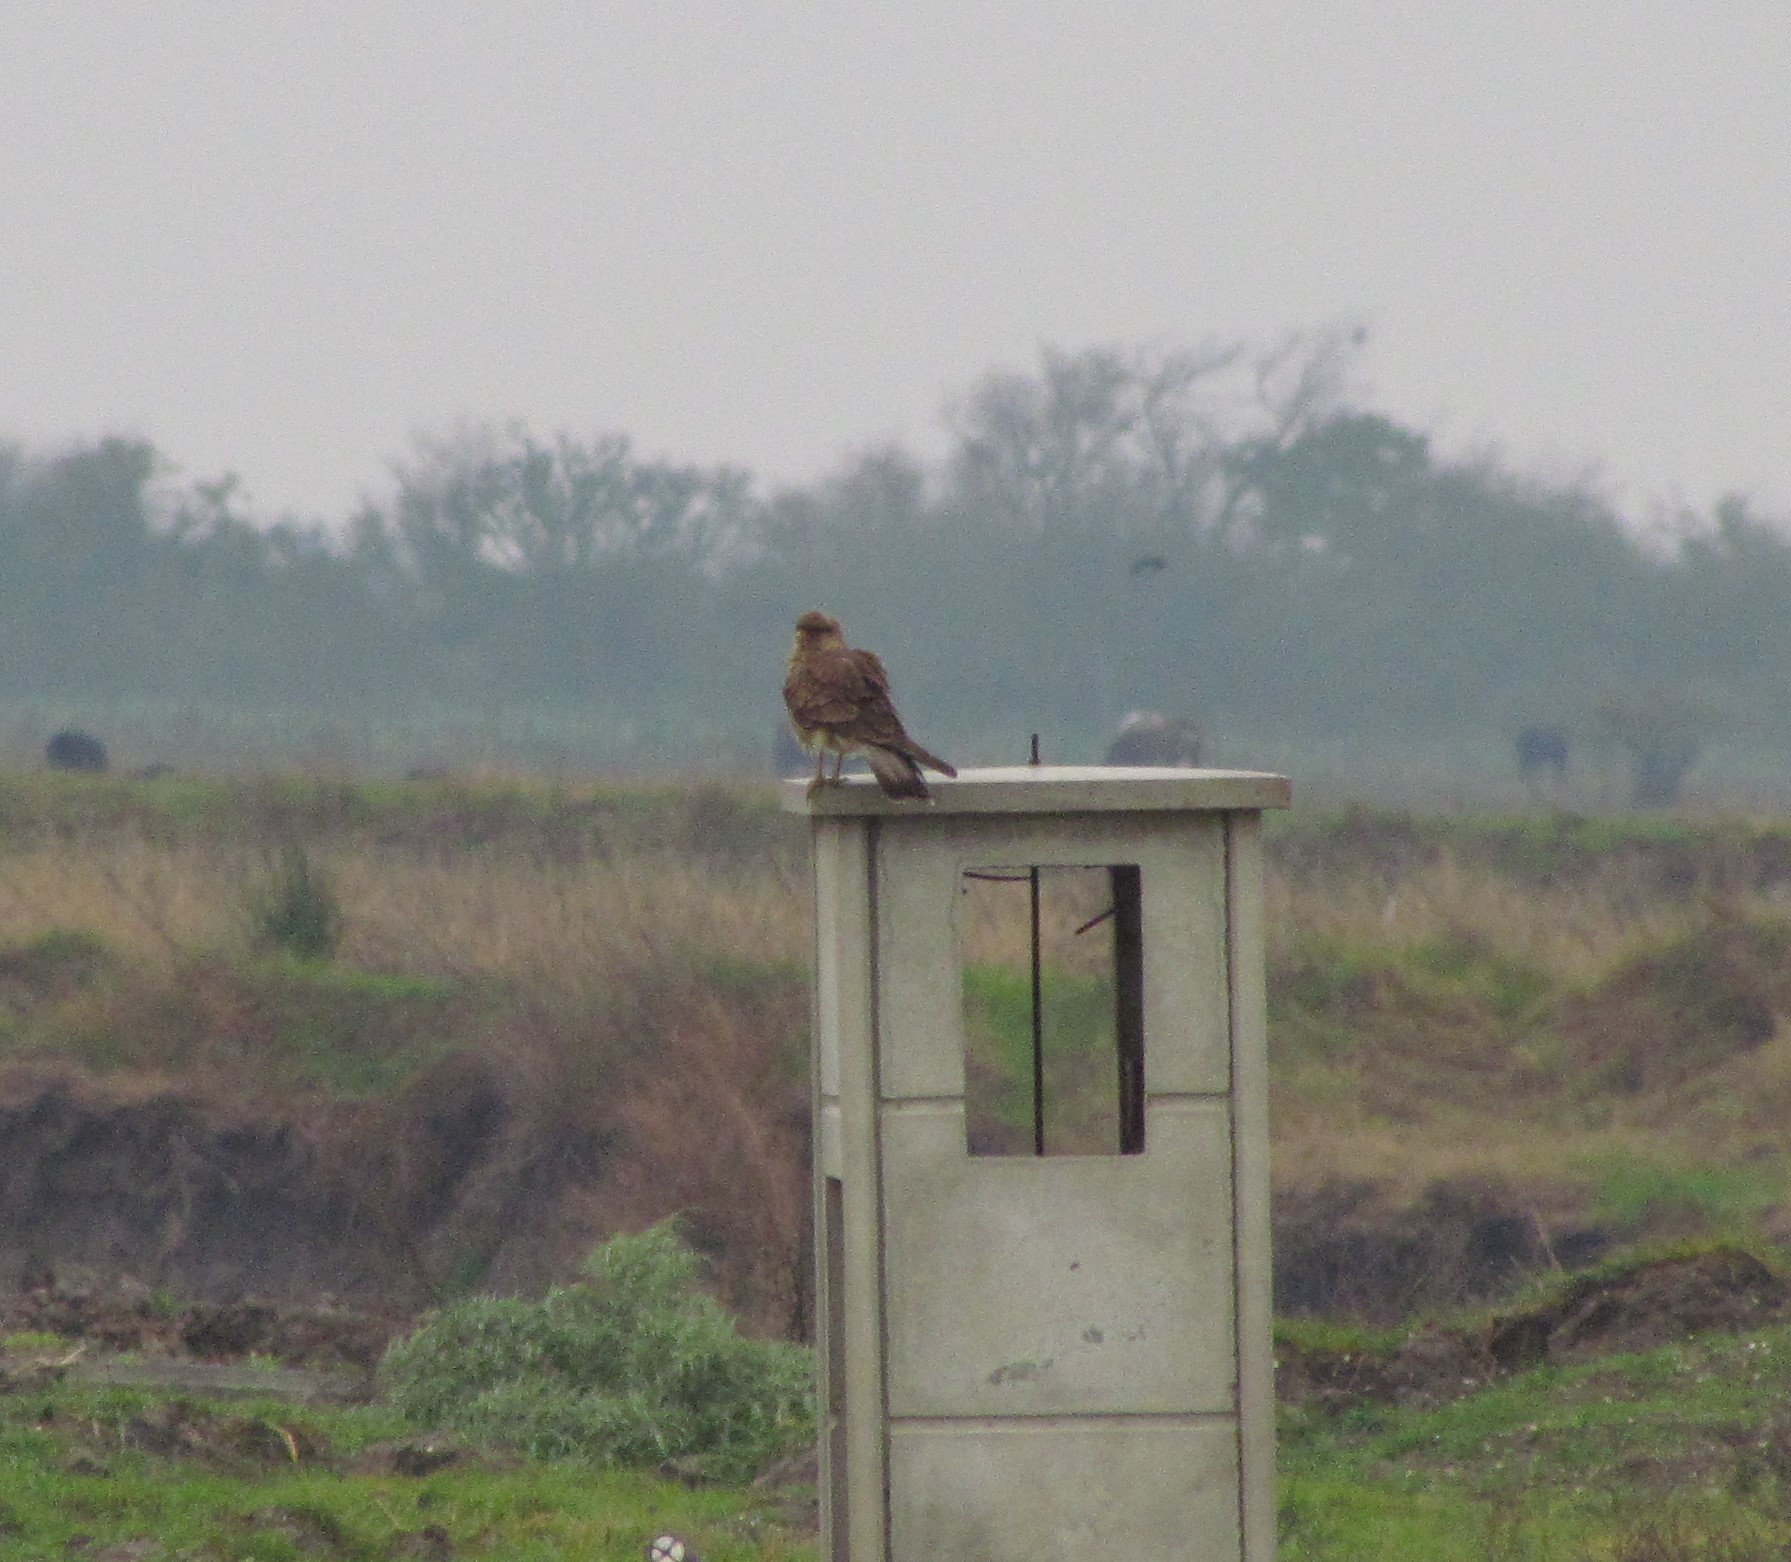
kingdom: Animalia
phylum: Chordata
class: Aves
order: Falconiformes
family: Falconidae
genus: Daptrius
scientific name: Daptrius
